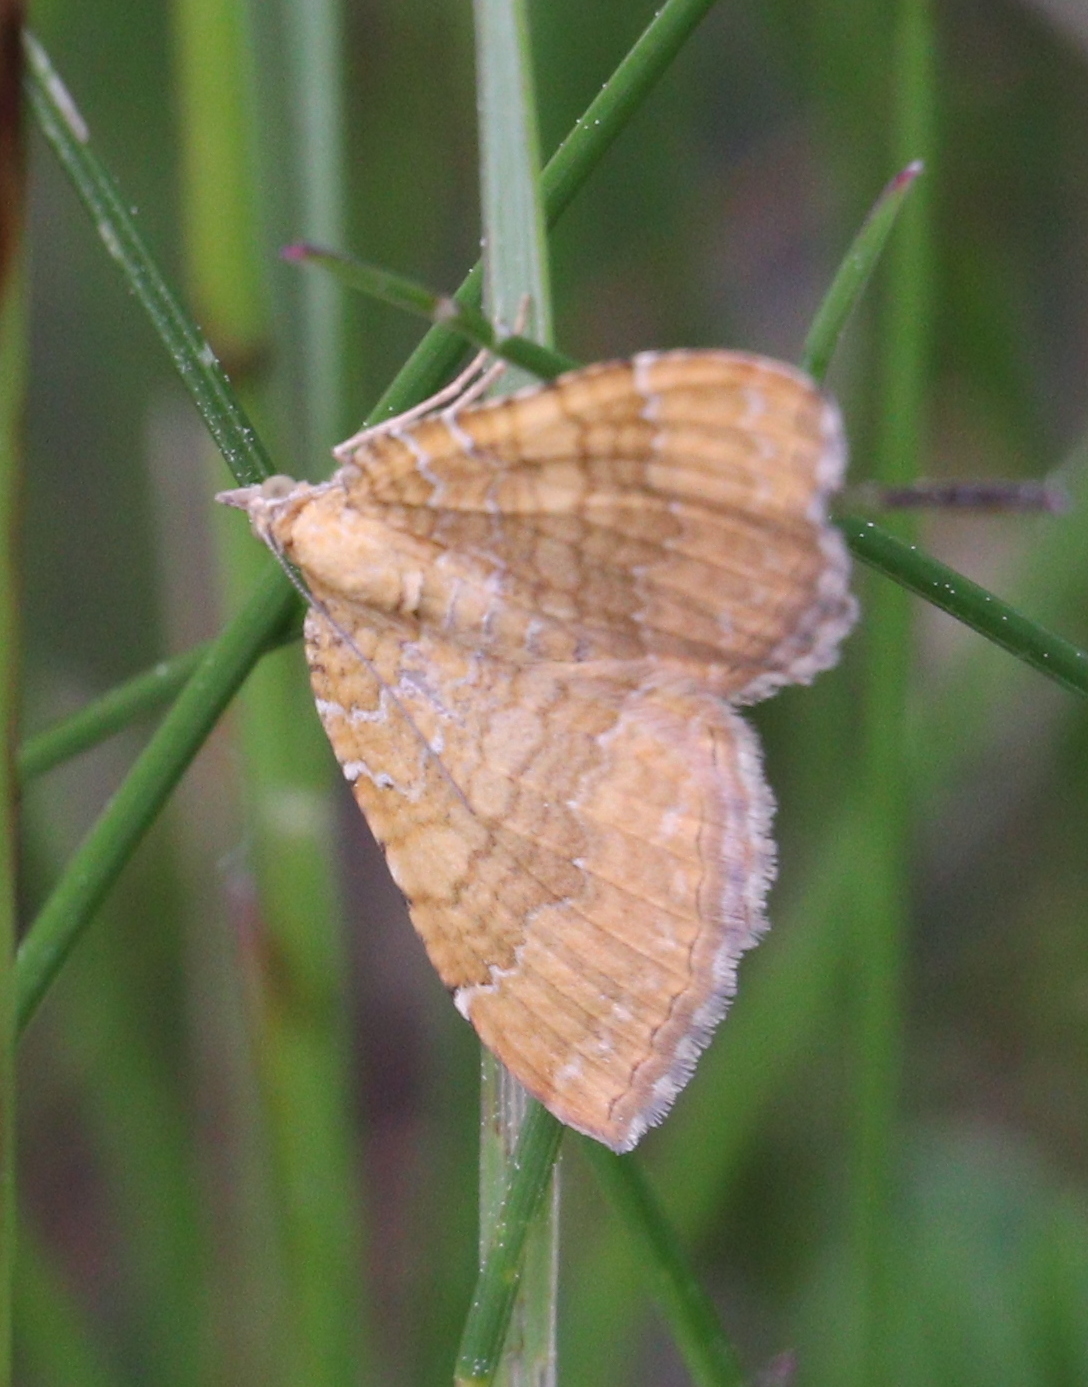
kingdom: Animalia
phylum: Arthropoda
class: Insecta
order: Lepidoptera
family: Geometridae
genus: Camptogramma
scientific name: Camptogramma bilineata
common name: Yellow shell
